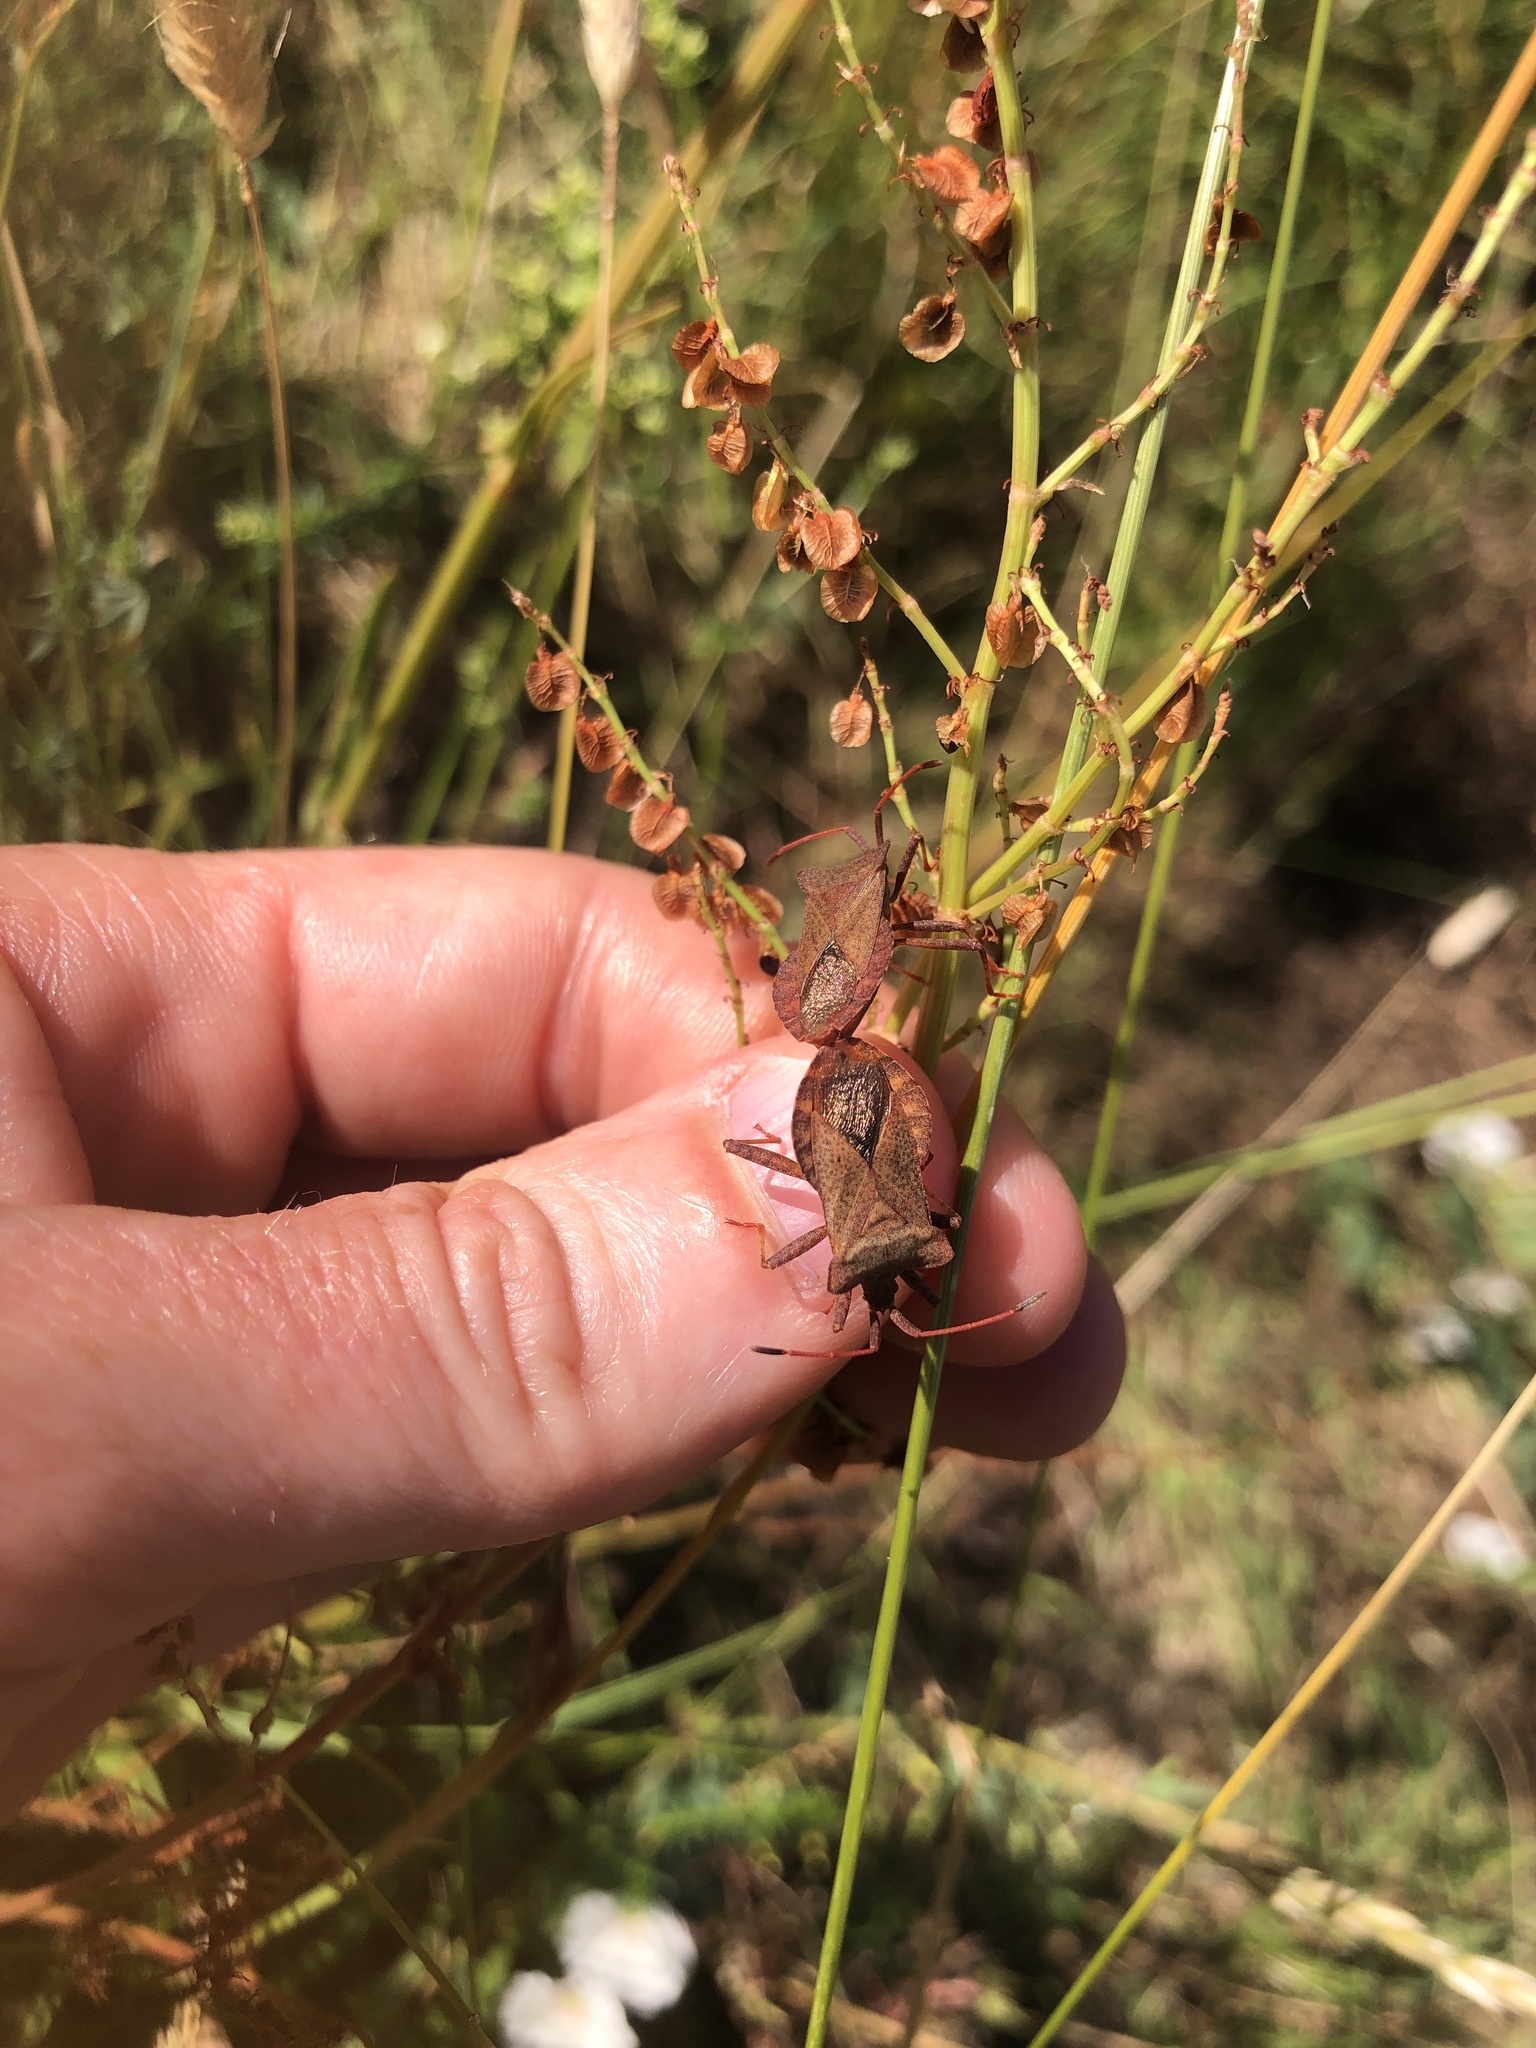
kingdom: Animalia
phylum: Arthropoda
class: Insecta
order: Hemiptera
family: Coreidae
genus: Coreus
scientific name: Coreus marginatus
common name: Dock bug
